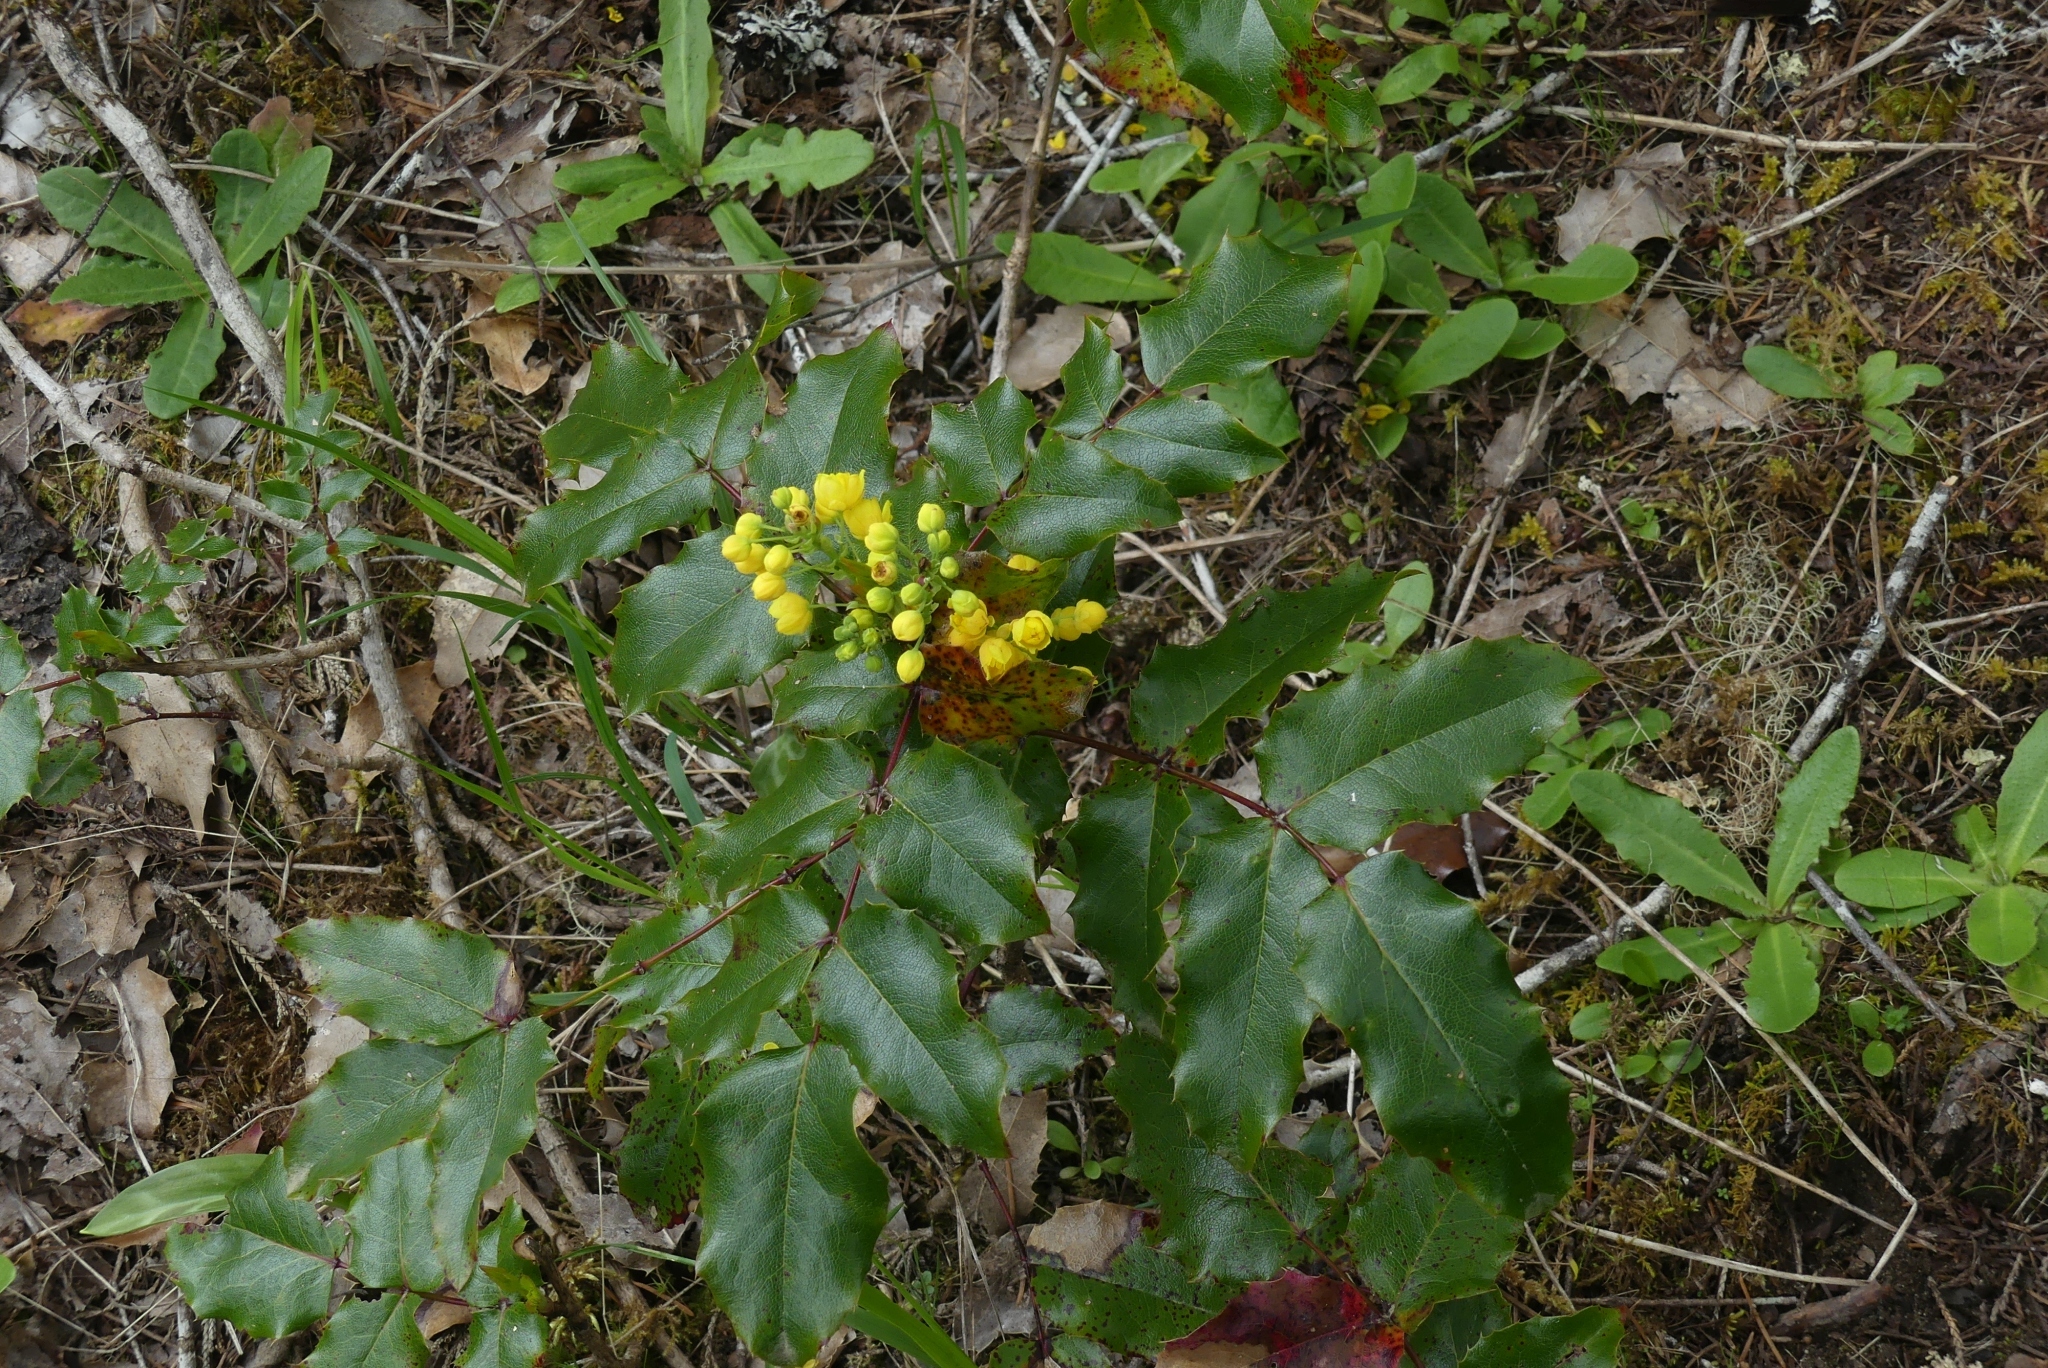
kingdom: Plantae
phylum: Tracheophyta
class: Magnoliopsida
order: Ranunculales
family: Berberidaceae
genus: Mahonia
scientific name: Mahonia aquifolium
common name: Oregon-grape
